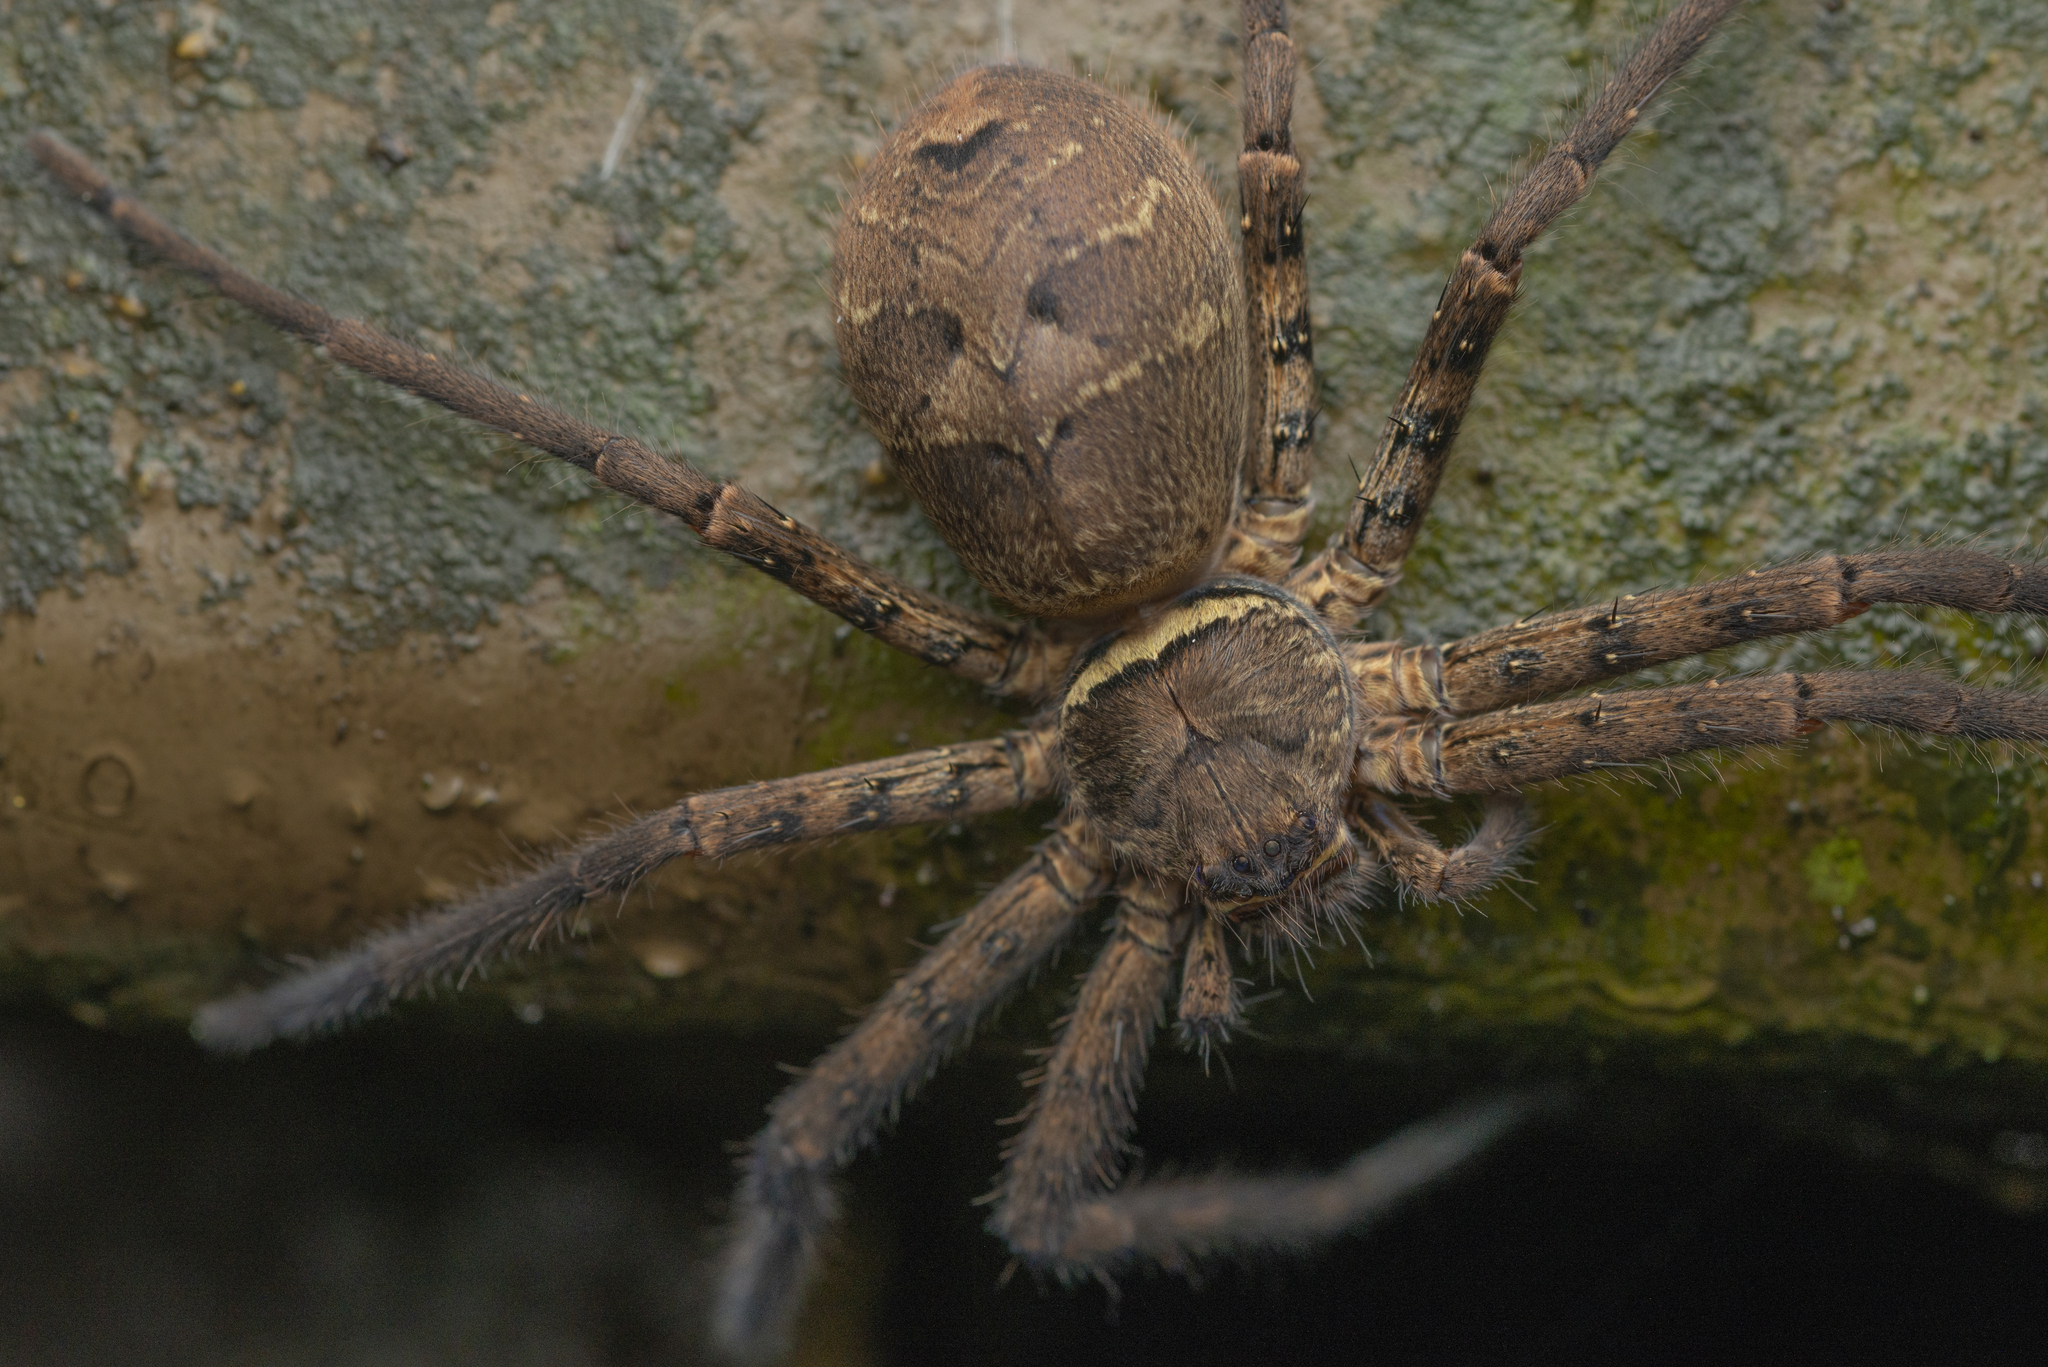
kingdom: Animalia
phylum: Arthropoda
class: Arachnida
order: Araneae
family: Sparassidae
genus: Heteropoda
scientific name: Heteropoda venatoria
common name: Huntsman spider
